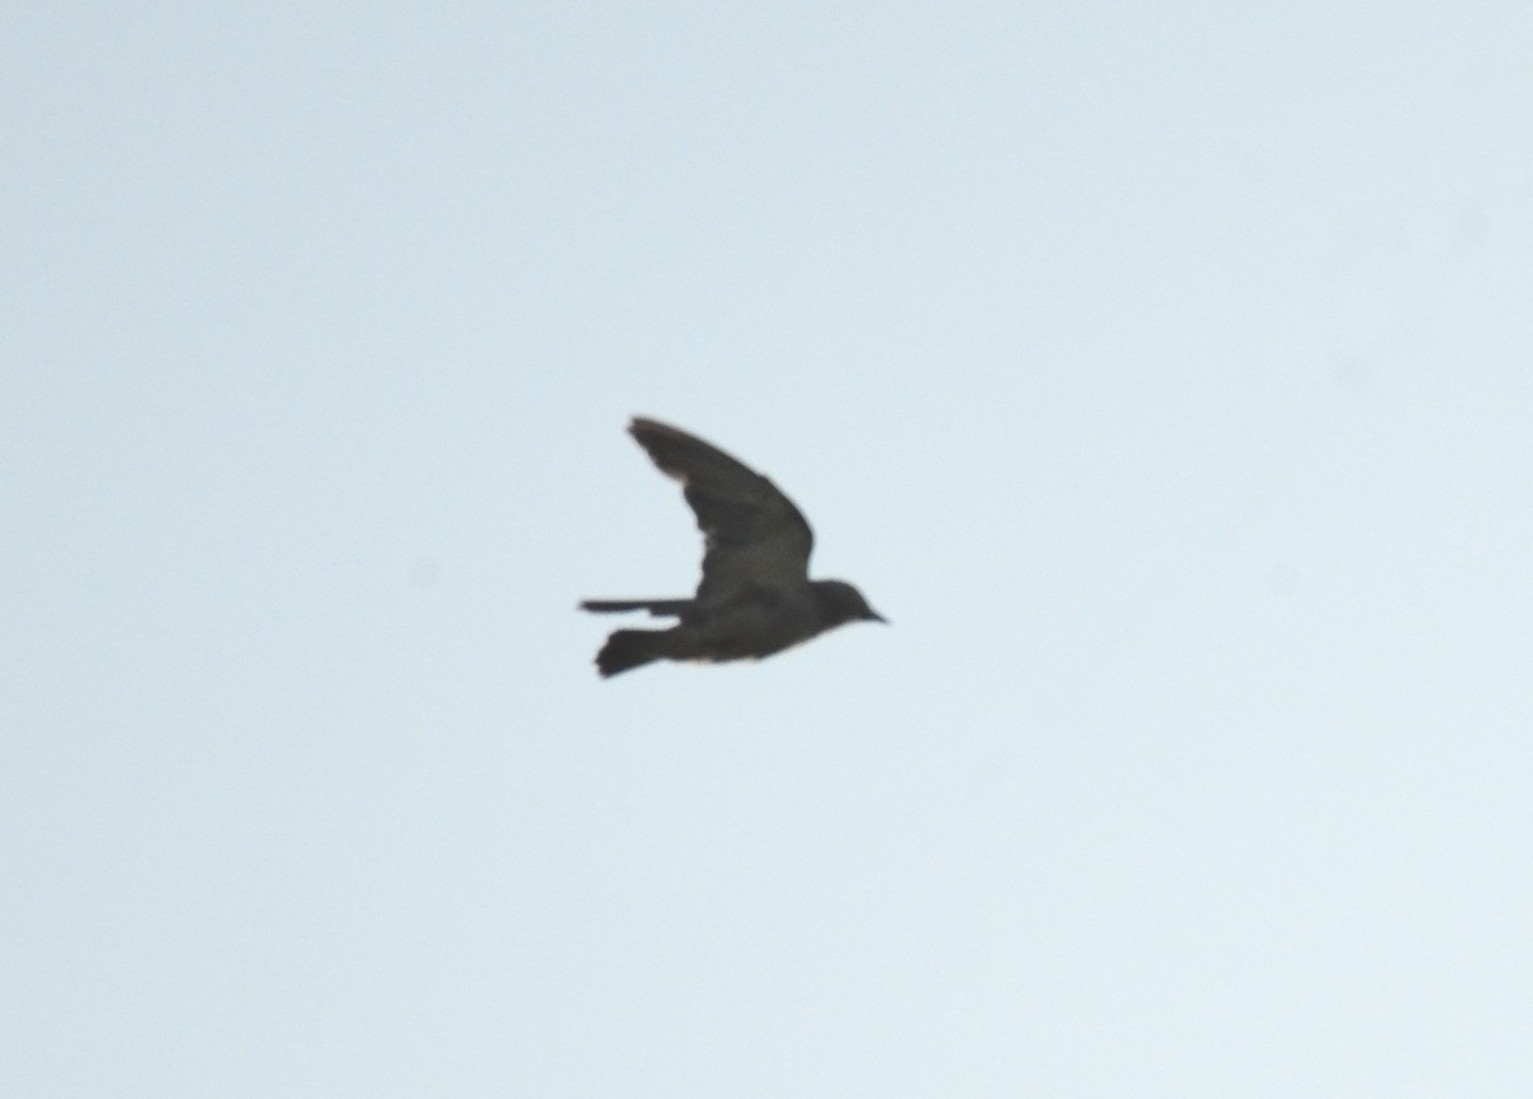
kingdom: Animalia
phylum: Chordata
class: Aves
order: Passeriformes
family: Artamidae
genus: Artamus
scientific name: Artamus fuscus
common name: Ashy woodswallow
